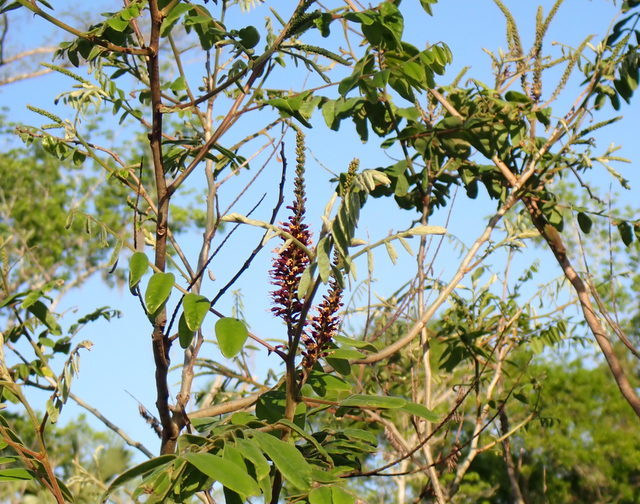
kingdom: Plantae
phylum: Tracheophyta
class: Magnoliopsida
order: Fabales
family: Fabaceae
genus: Amorpha
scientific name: Amorpha fruticosa
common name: False indigo
